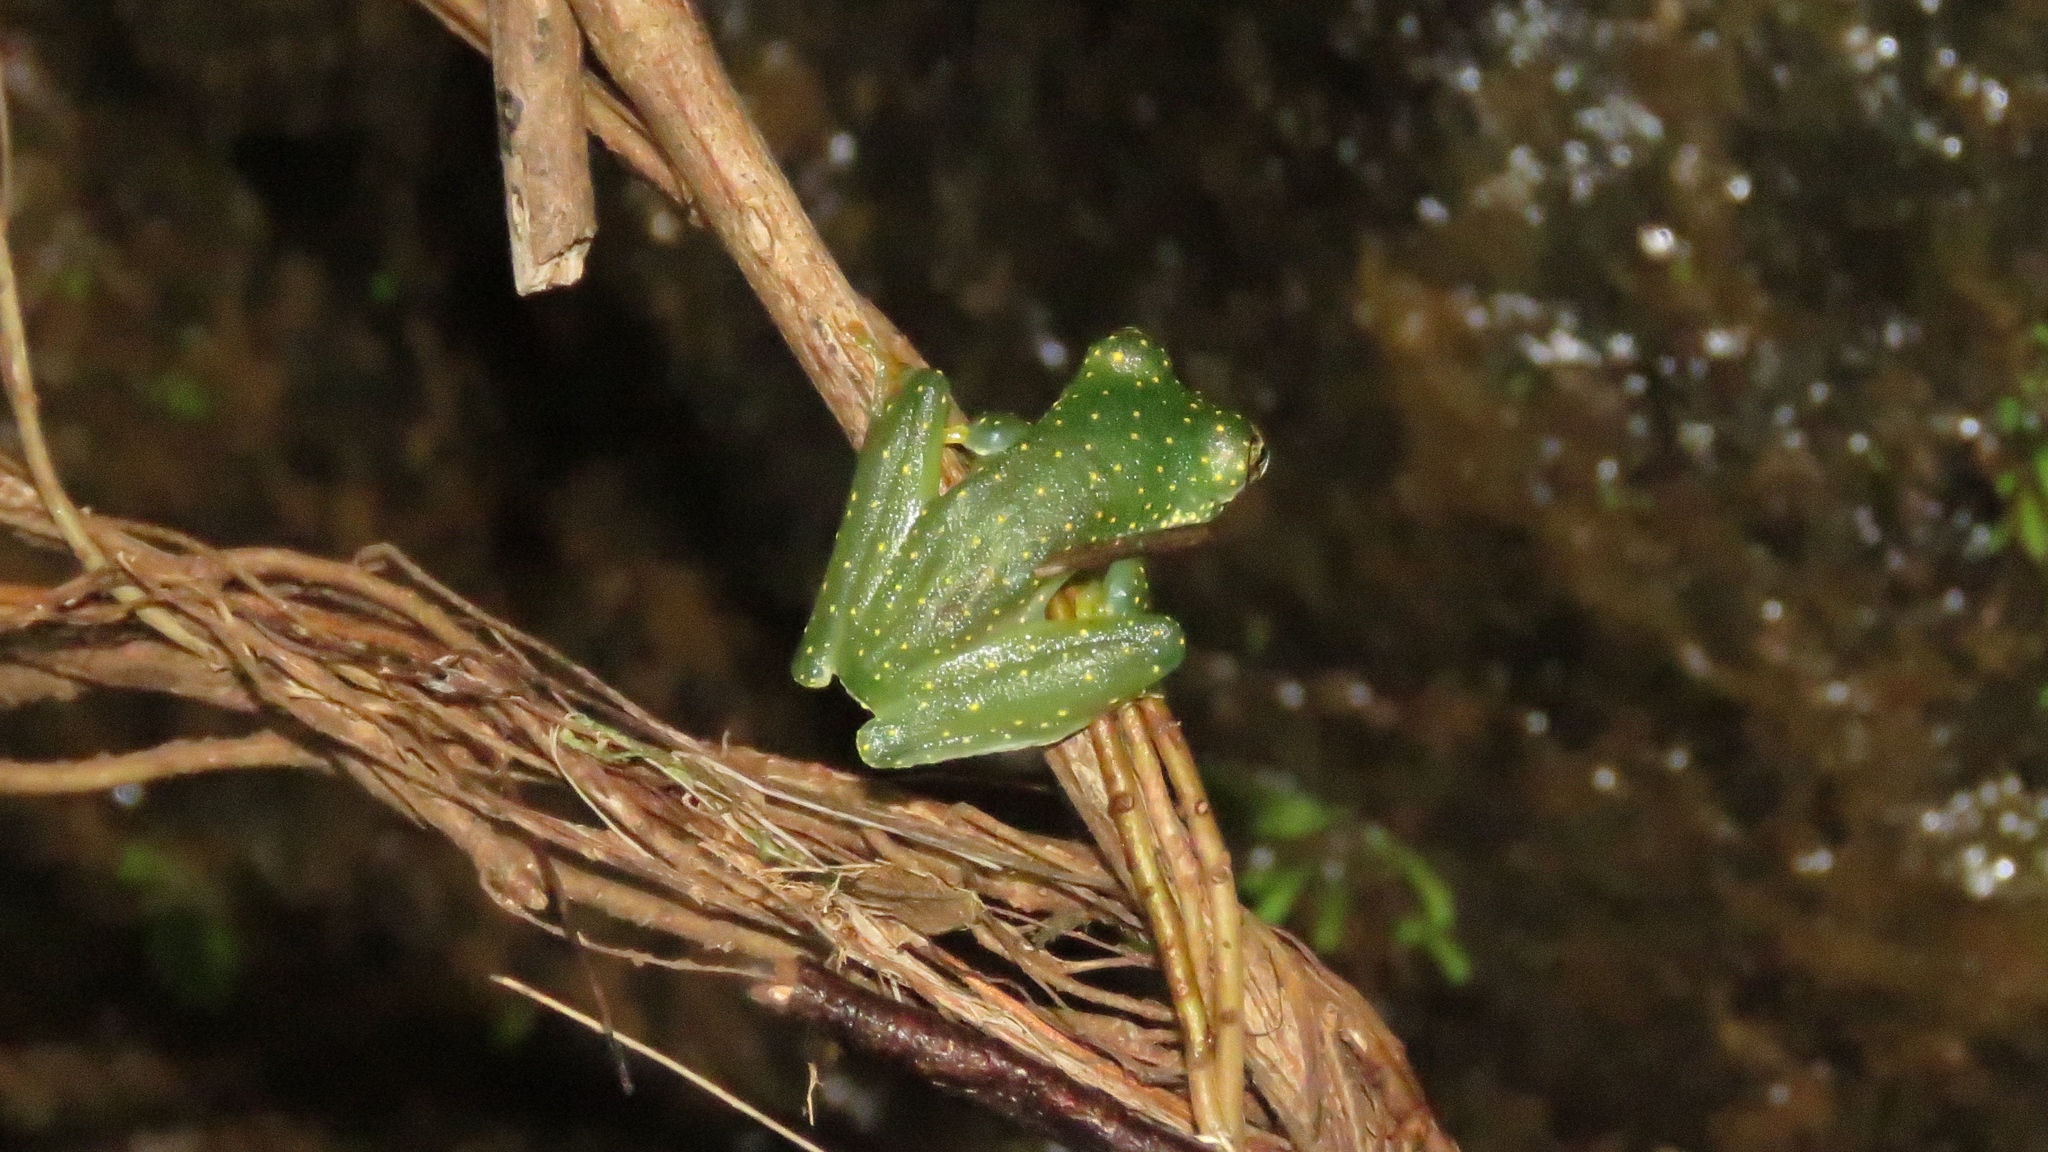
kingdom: Animalia
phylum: Chordata
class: Amphibia
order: Anura
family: Centrolenidae
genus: Sachatamia
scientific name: Sachatamia albomaculata
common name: Rana de cristal de cascada
